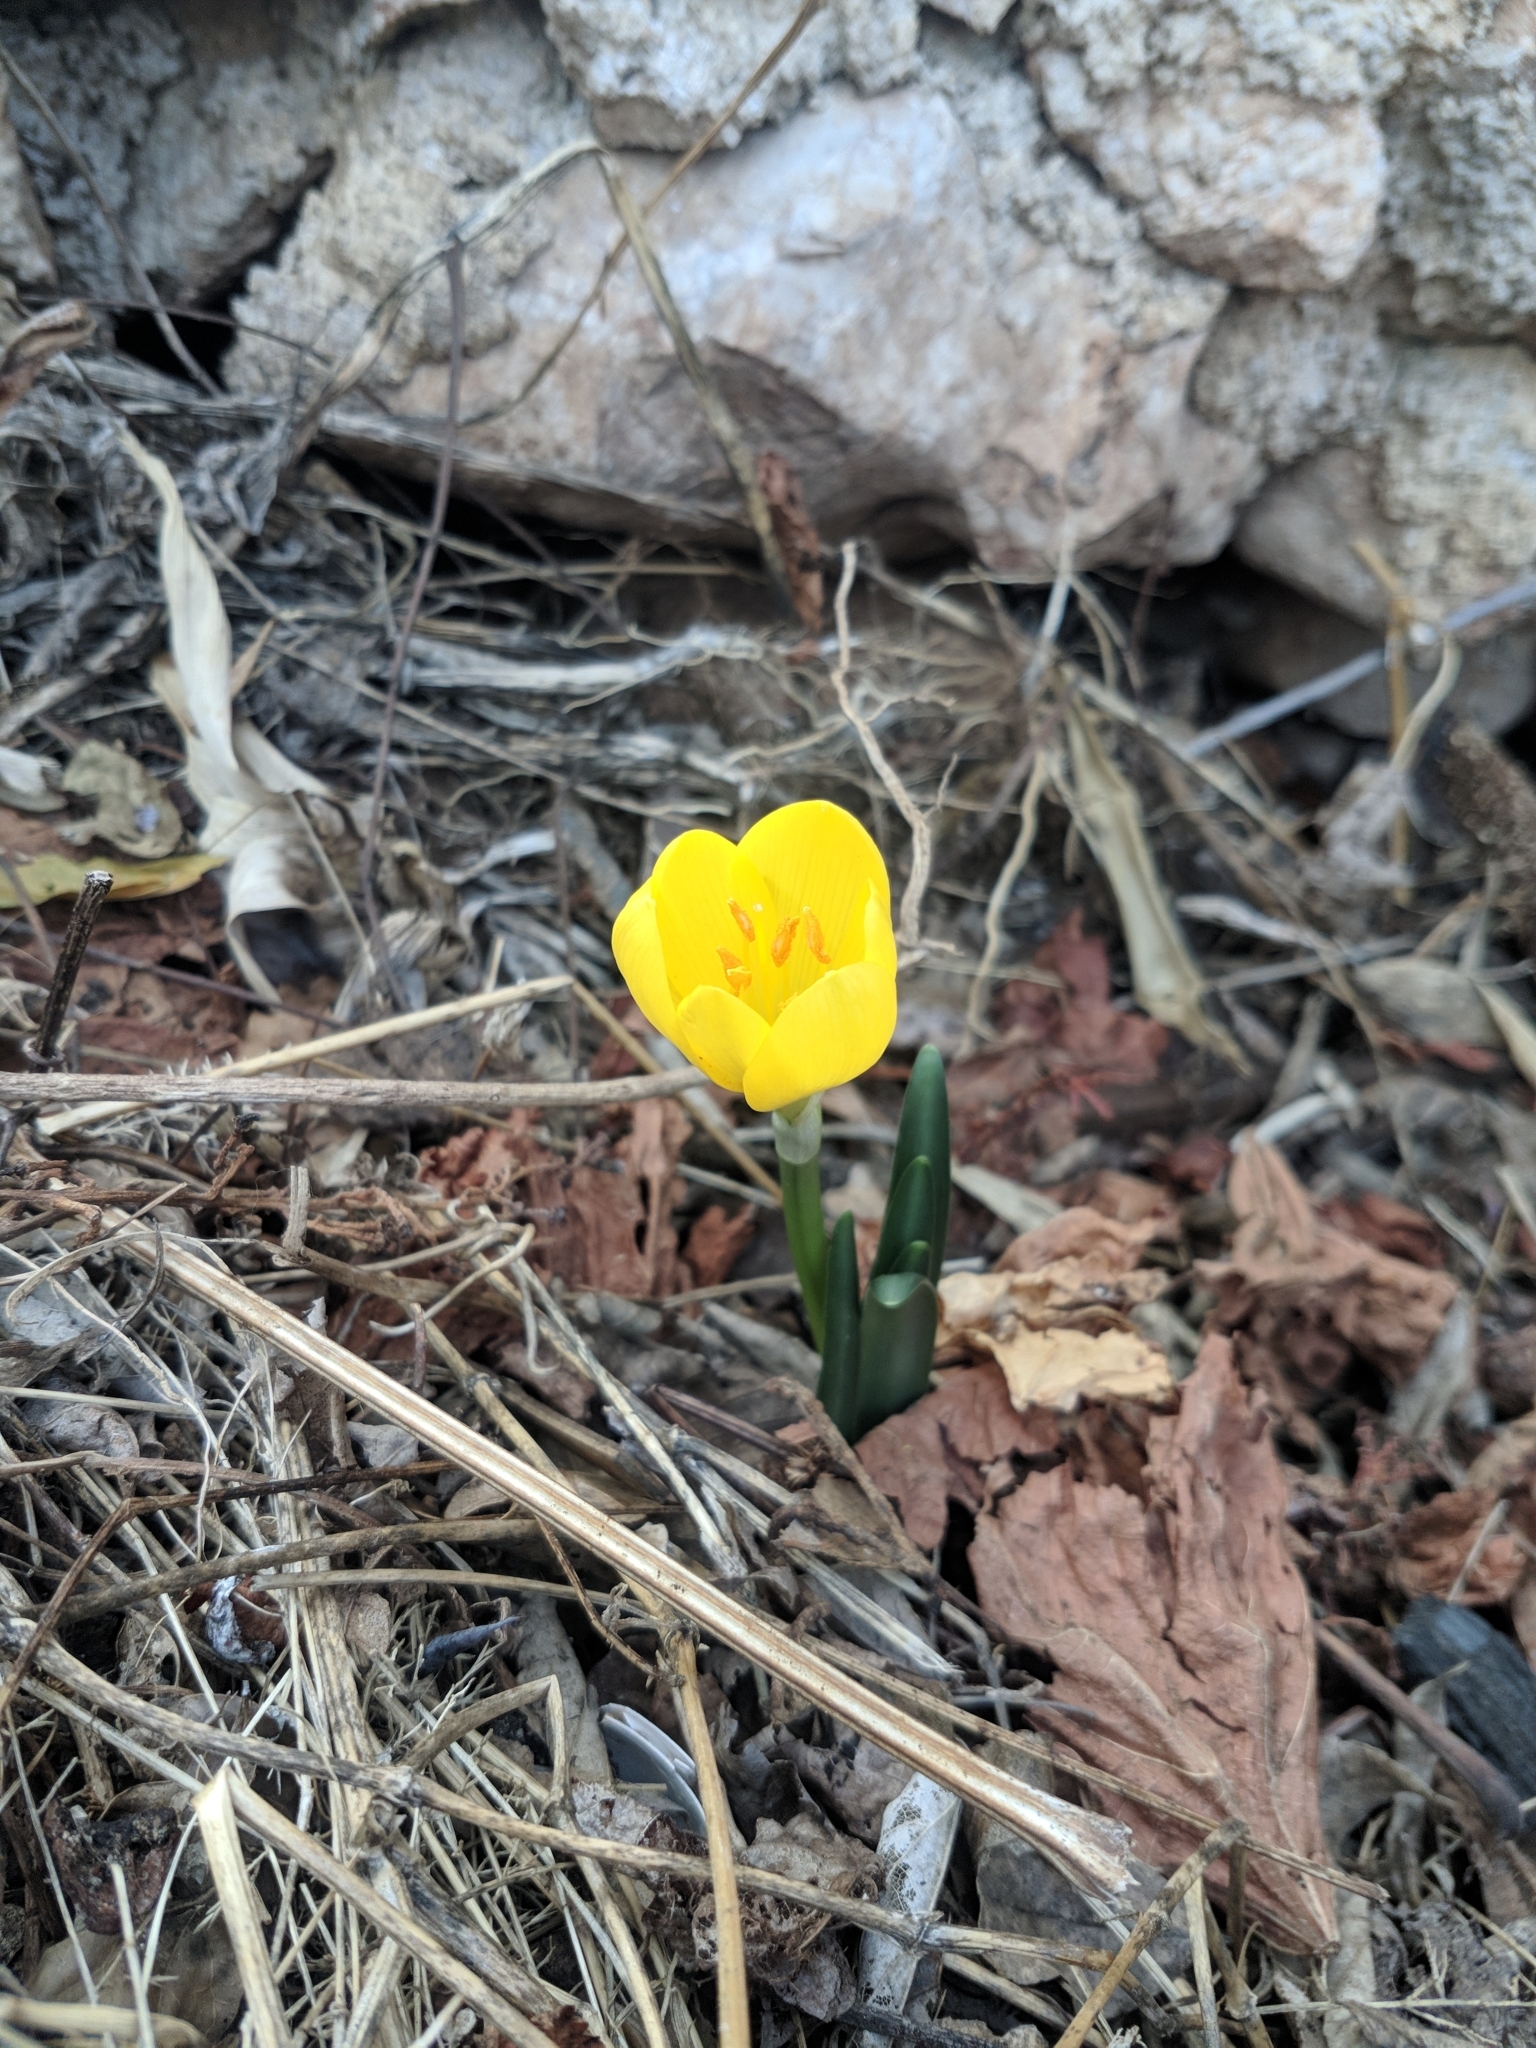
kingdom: Plantae
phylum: Tracheophyta
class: Liliopsida
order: Asparagales
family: Amaryllidaceae
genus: Sternbergia
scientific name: Sternbergia lutea
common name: Winter daffodil
